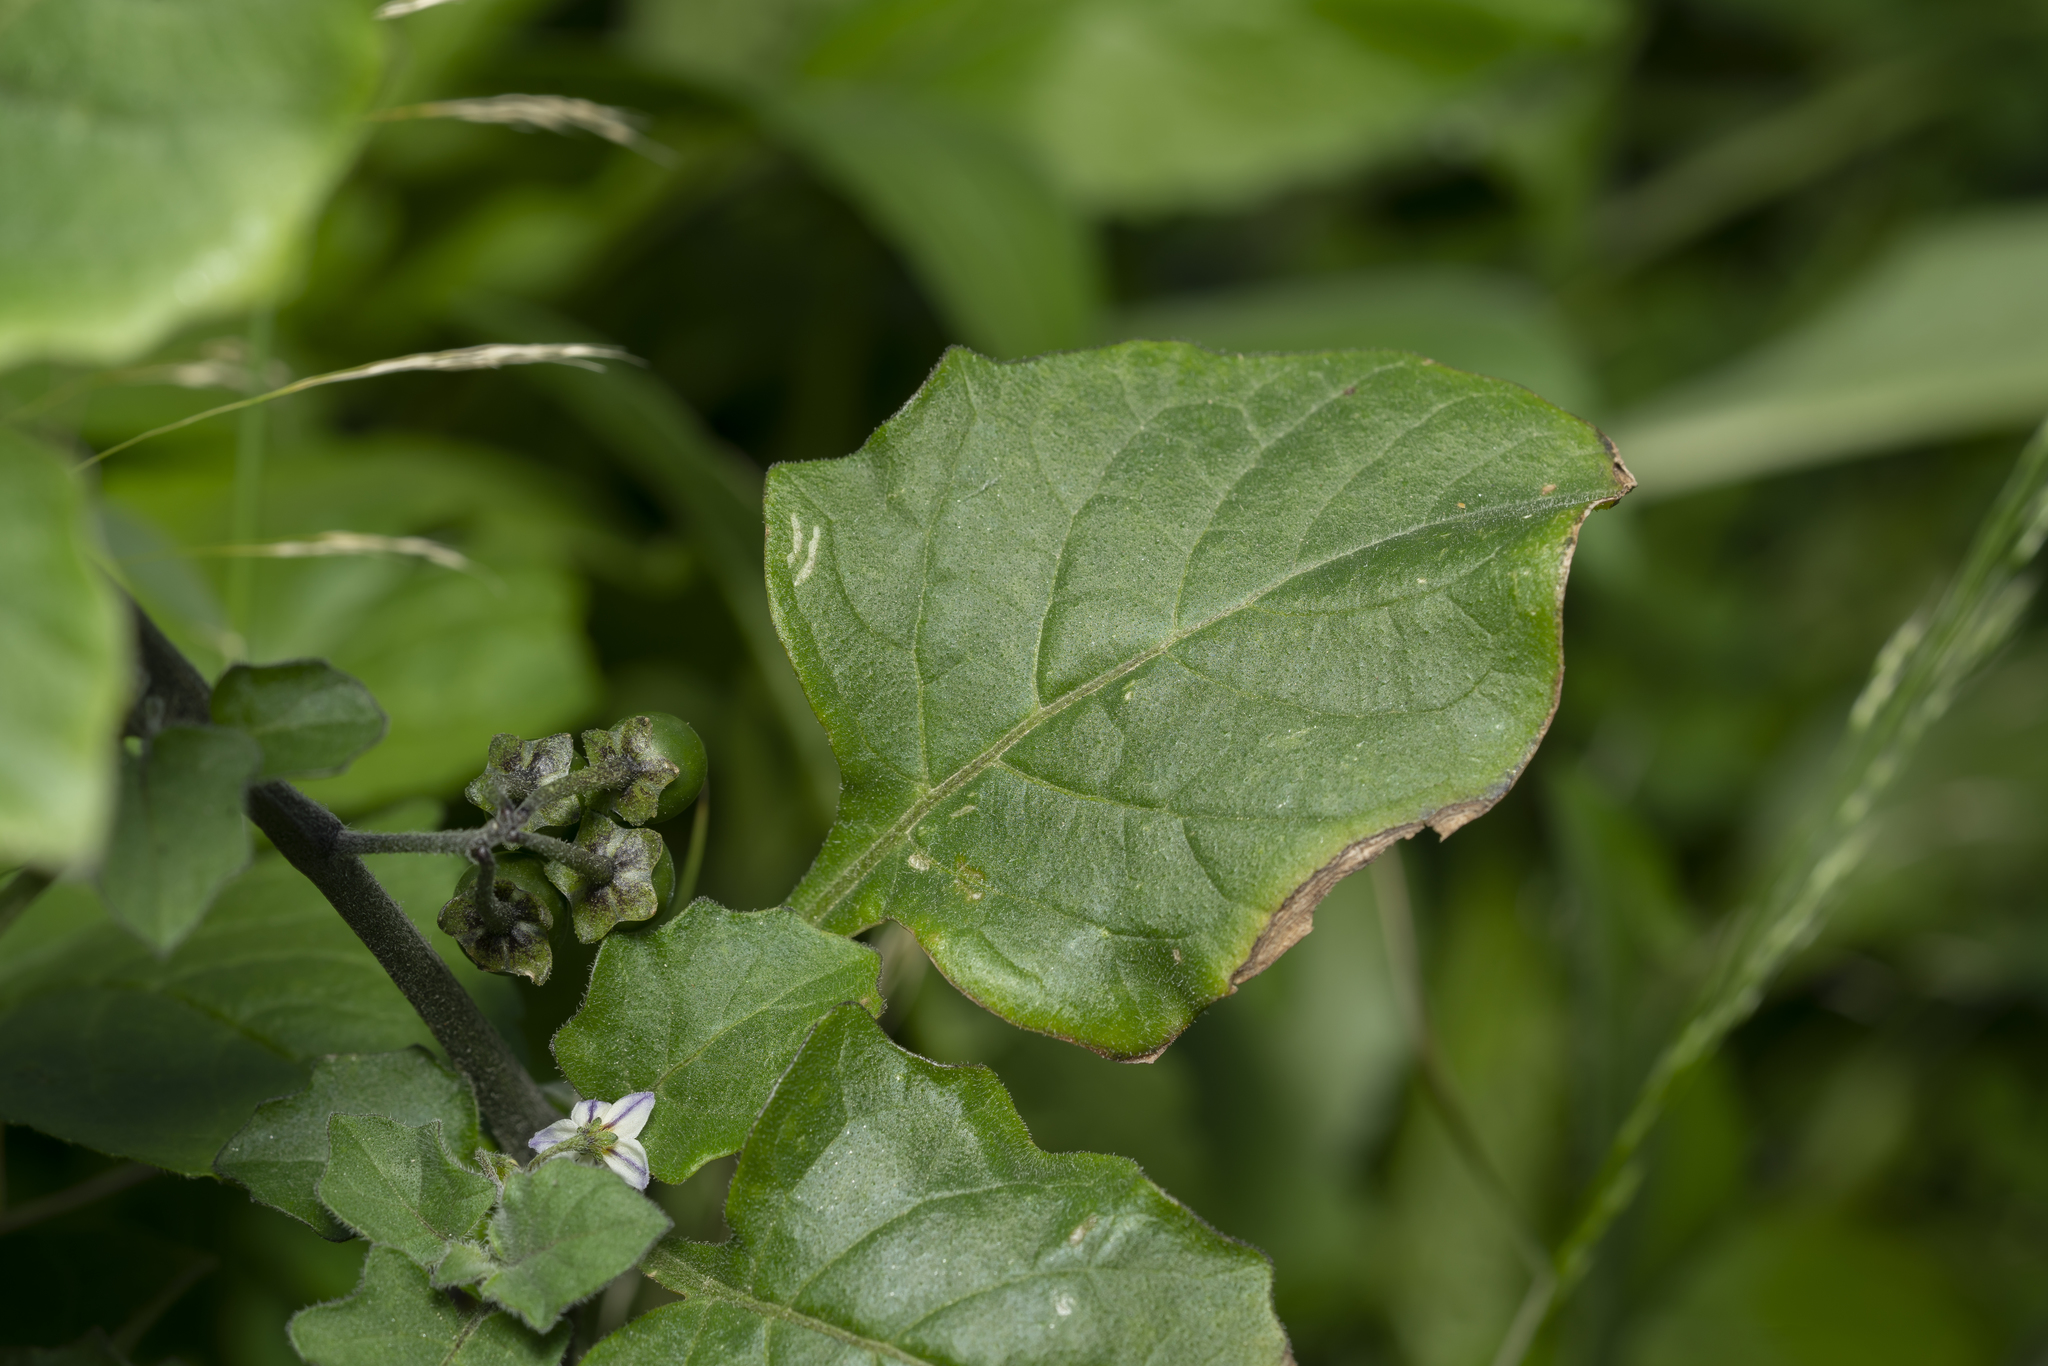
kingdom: Plantae
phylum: Tracheophyta
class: Magnoliopsida
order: Solanales
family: Solanaceae
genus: Solanum
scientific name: Solanum villosum
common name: Red nightshade
